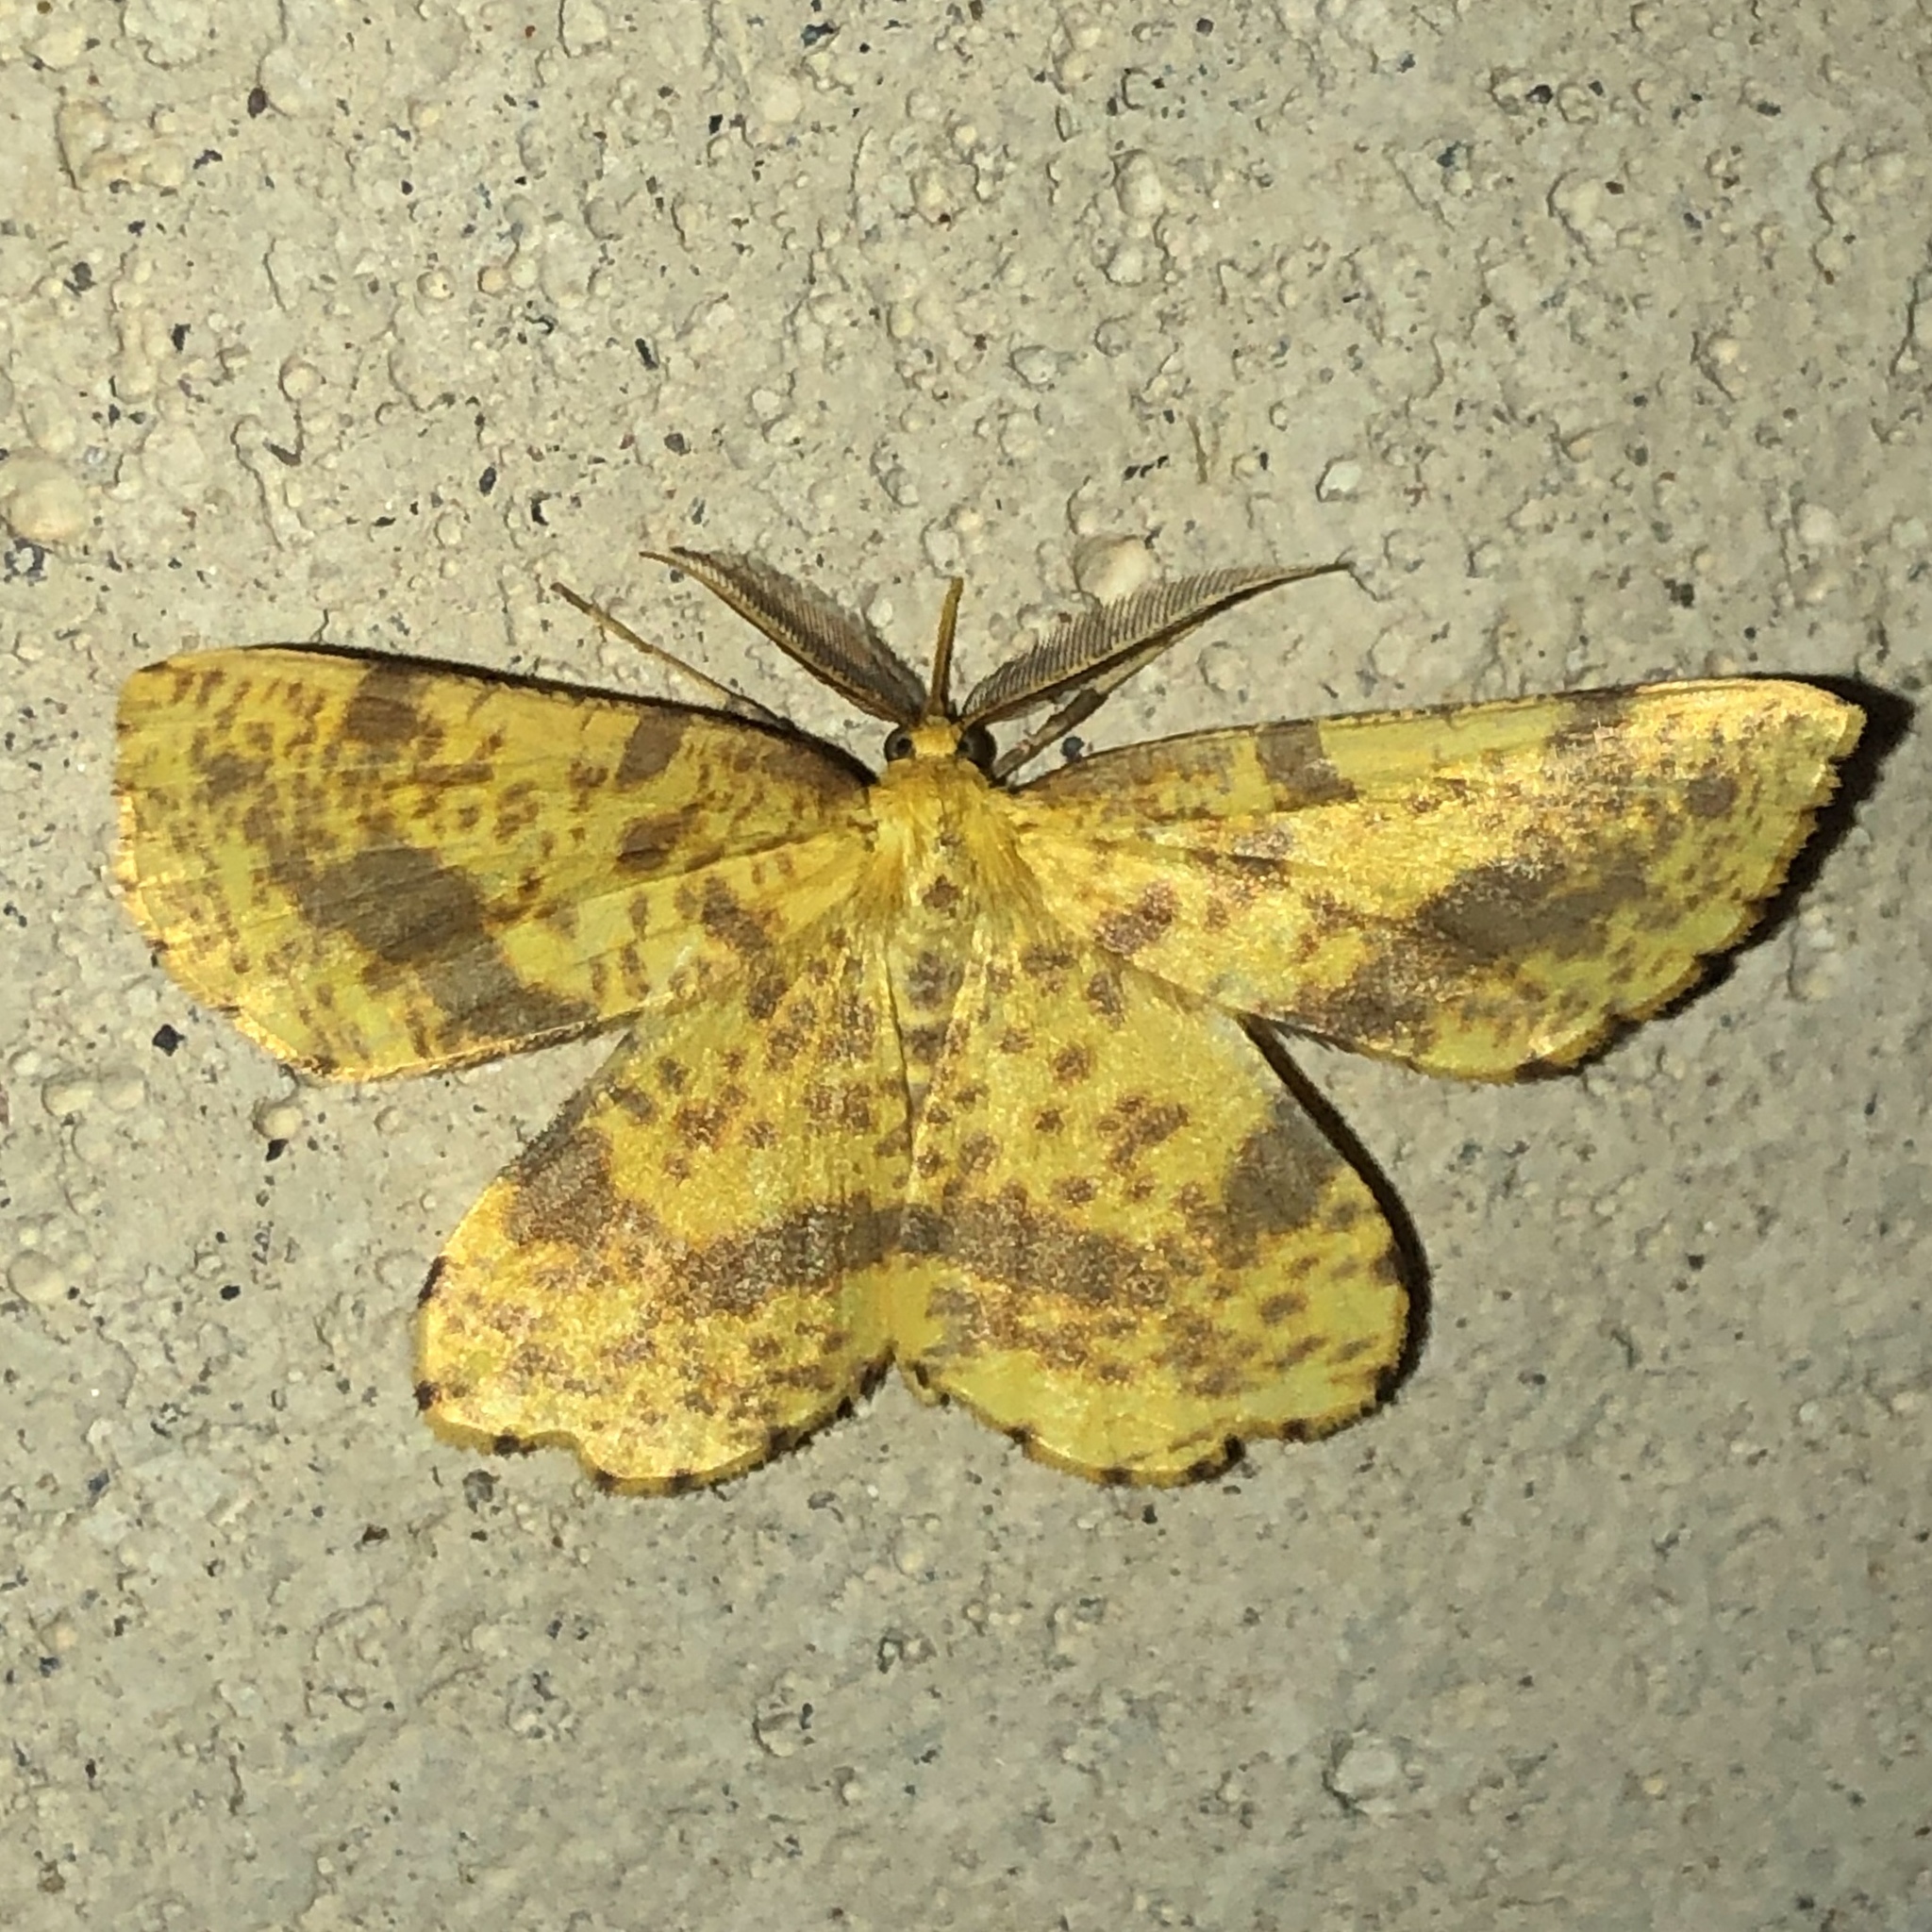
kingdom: Animalia
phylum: Arthropoda
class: Insecta
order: Lepidoptera
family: Geometridae
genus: Xanthotype
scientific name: Xanthotype
